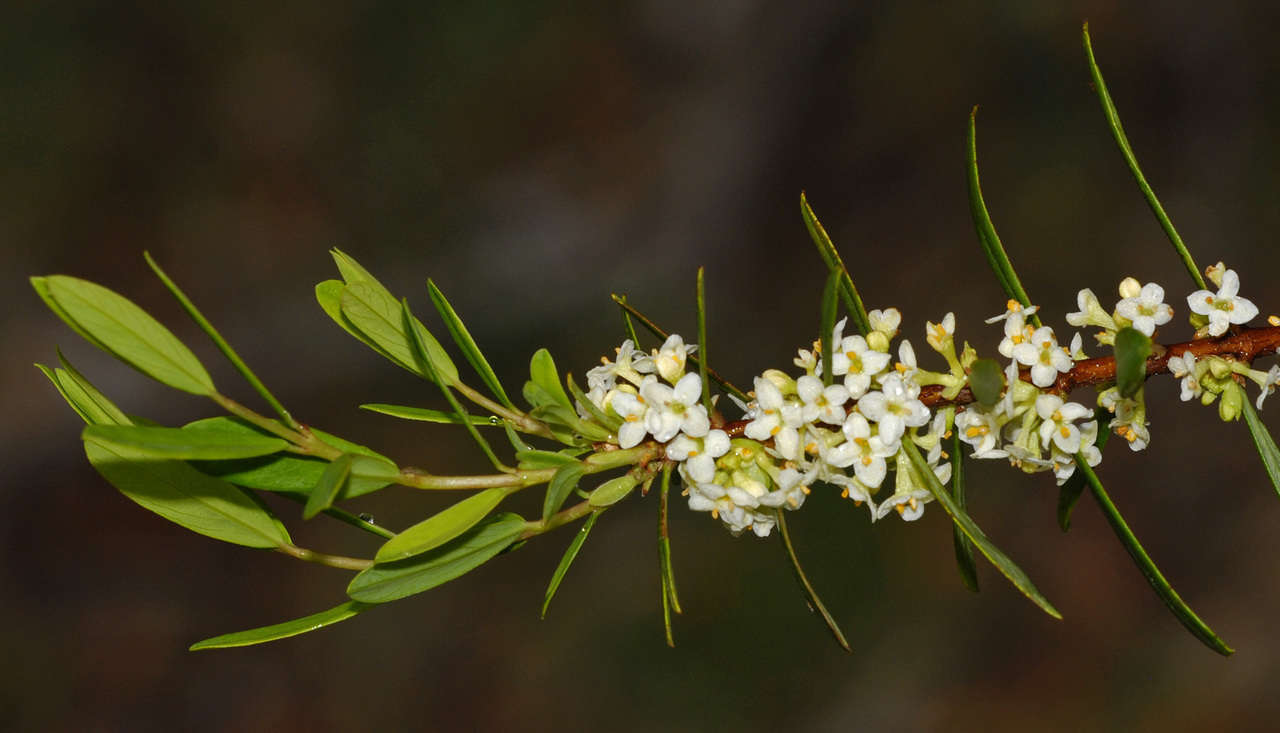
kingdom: Plantae
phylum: Tracheophyta
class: Magnoliopsida
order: Malvales
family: Thymelaeaceae
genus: Pimelea
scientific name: Pimelea axiflora
